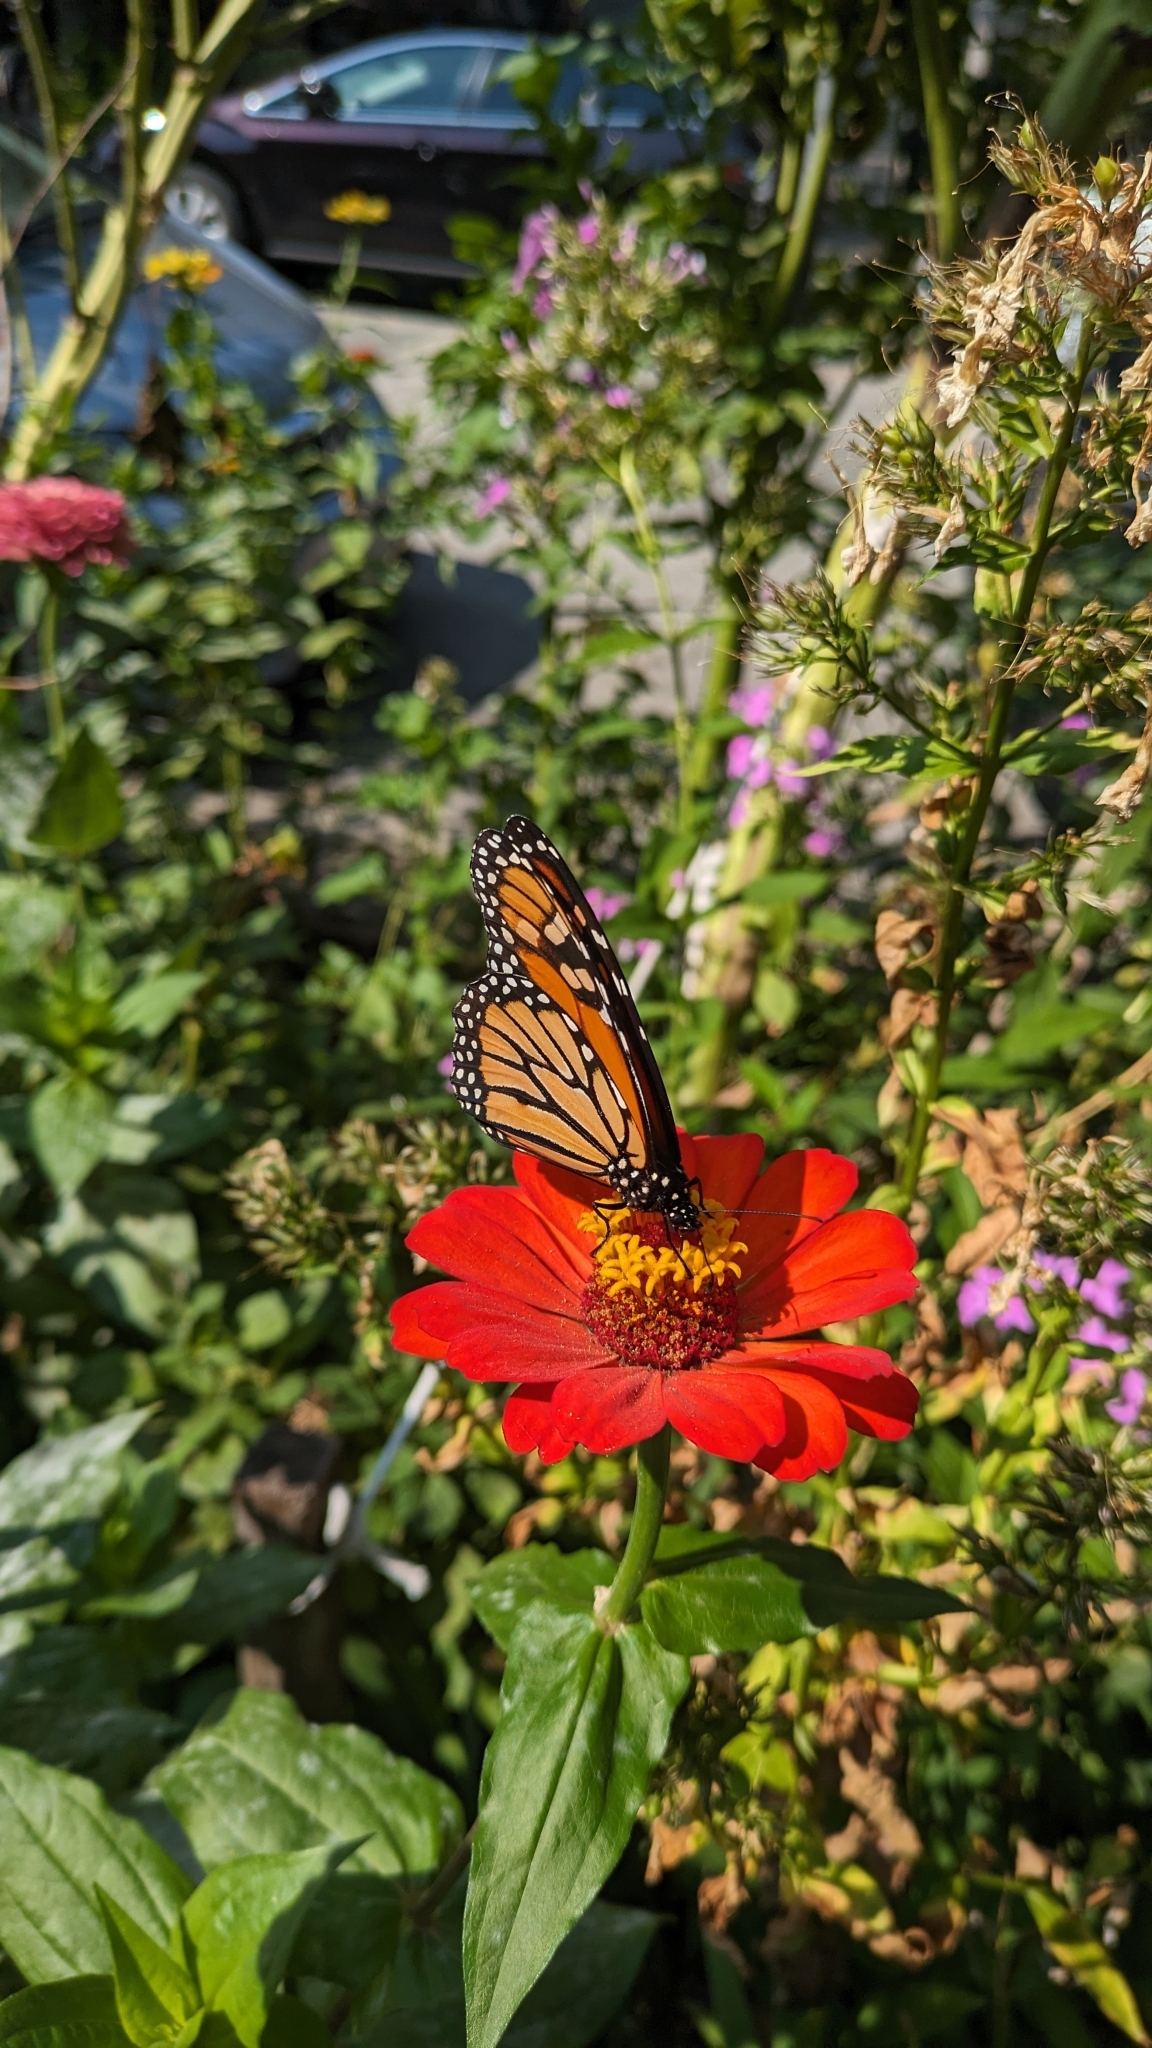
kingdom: Animalia
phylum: Arthropoda
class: Insecta
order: Lepidoptera
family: Nymphalidae
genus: Danaus
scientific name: Danaus plexippus
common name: Monarch
